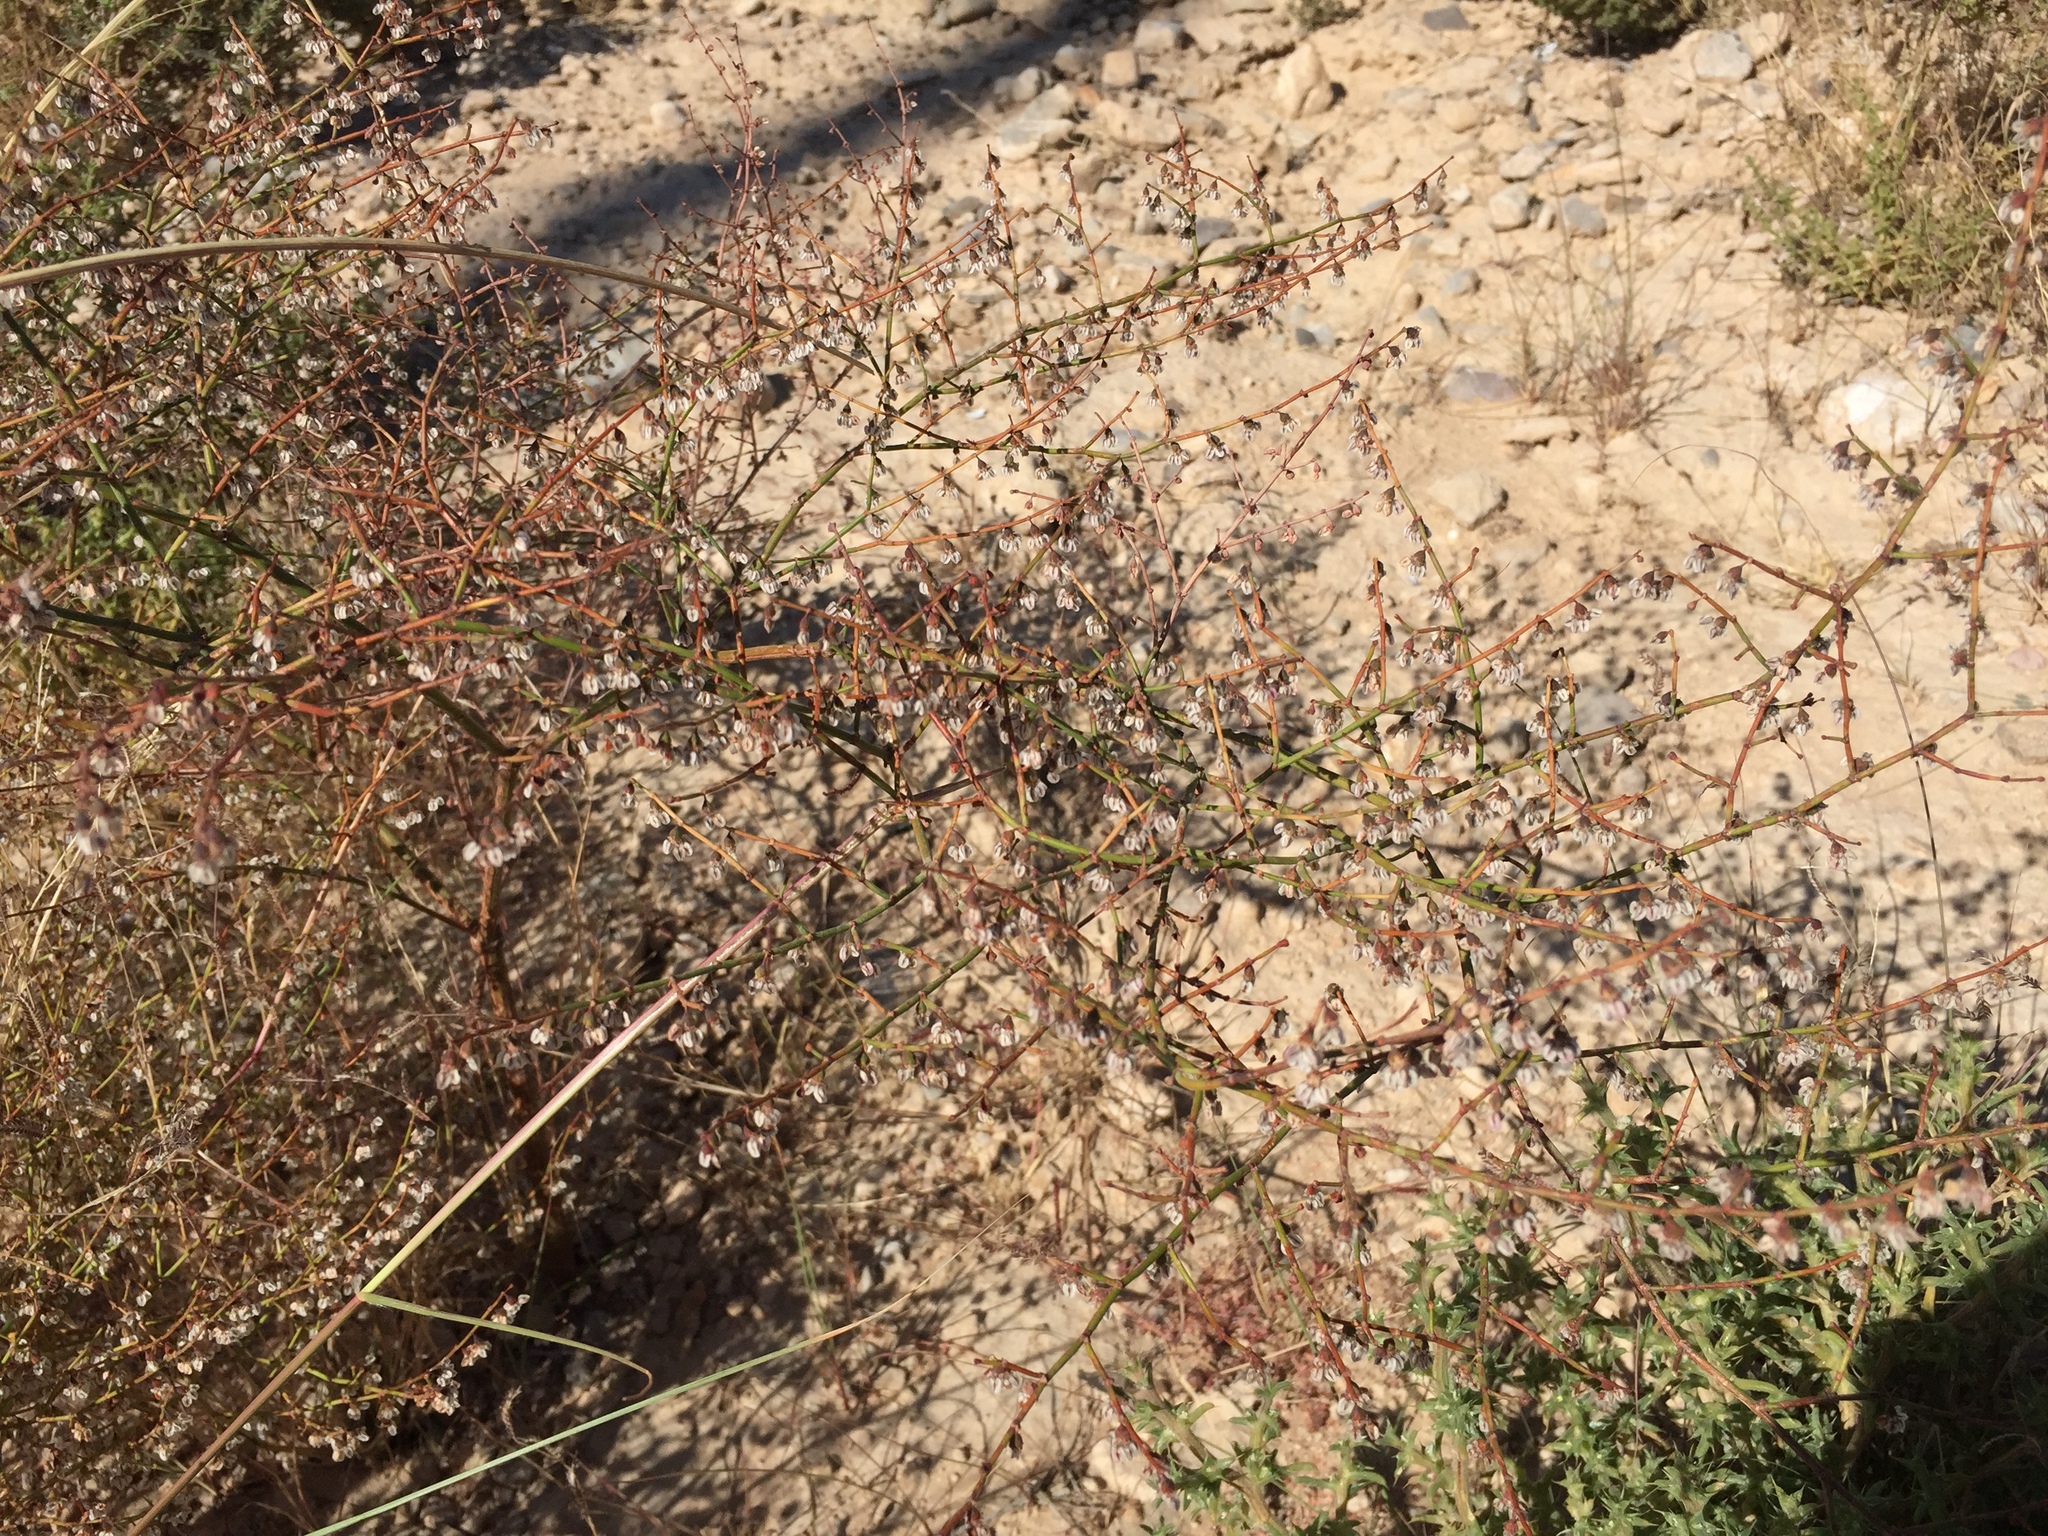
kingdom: Plantae
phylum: Tracheophyta
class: Magnoliopsida
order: Caryophyllales
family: Polygonaceae
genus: Eriogonum
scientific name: Eriogonum deflexum
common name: Skeleton-weed
